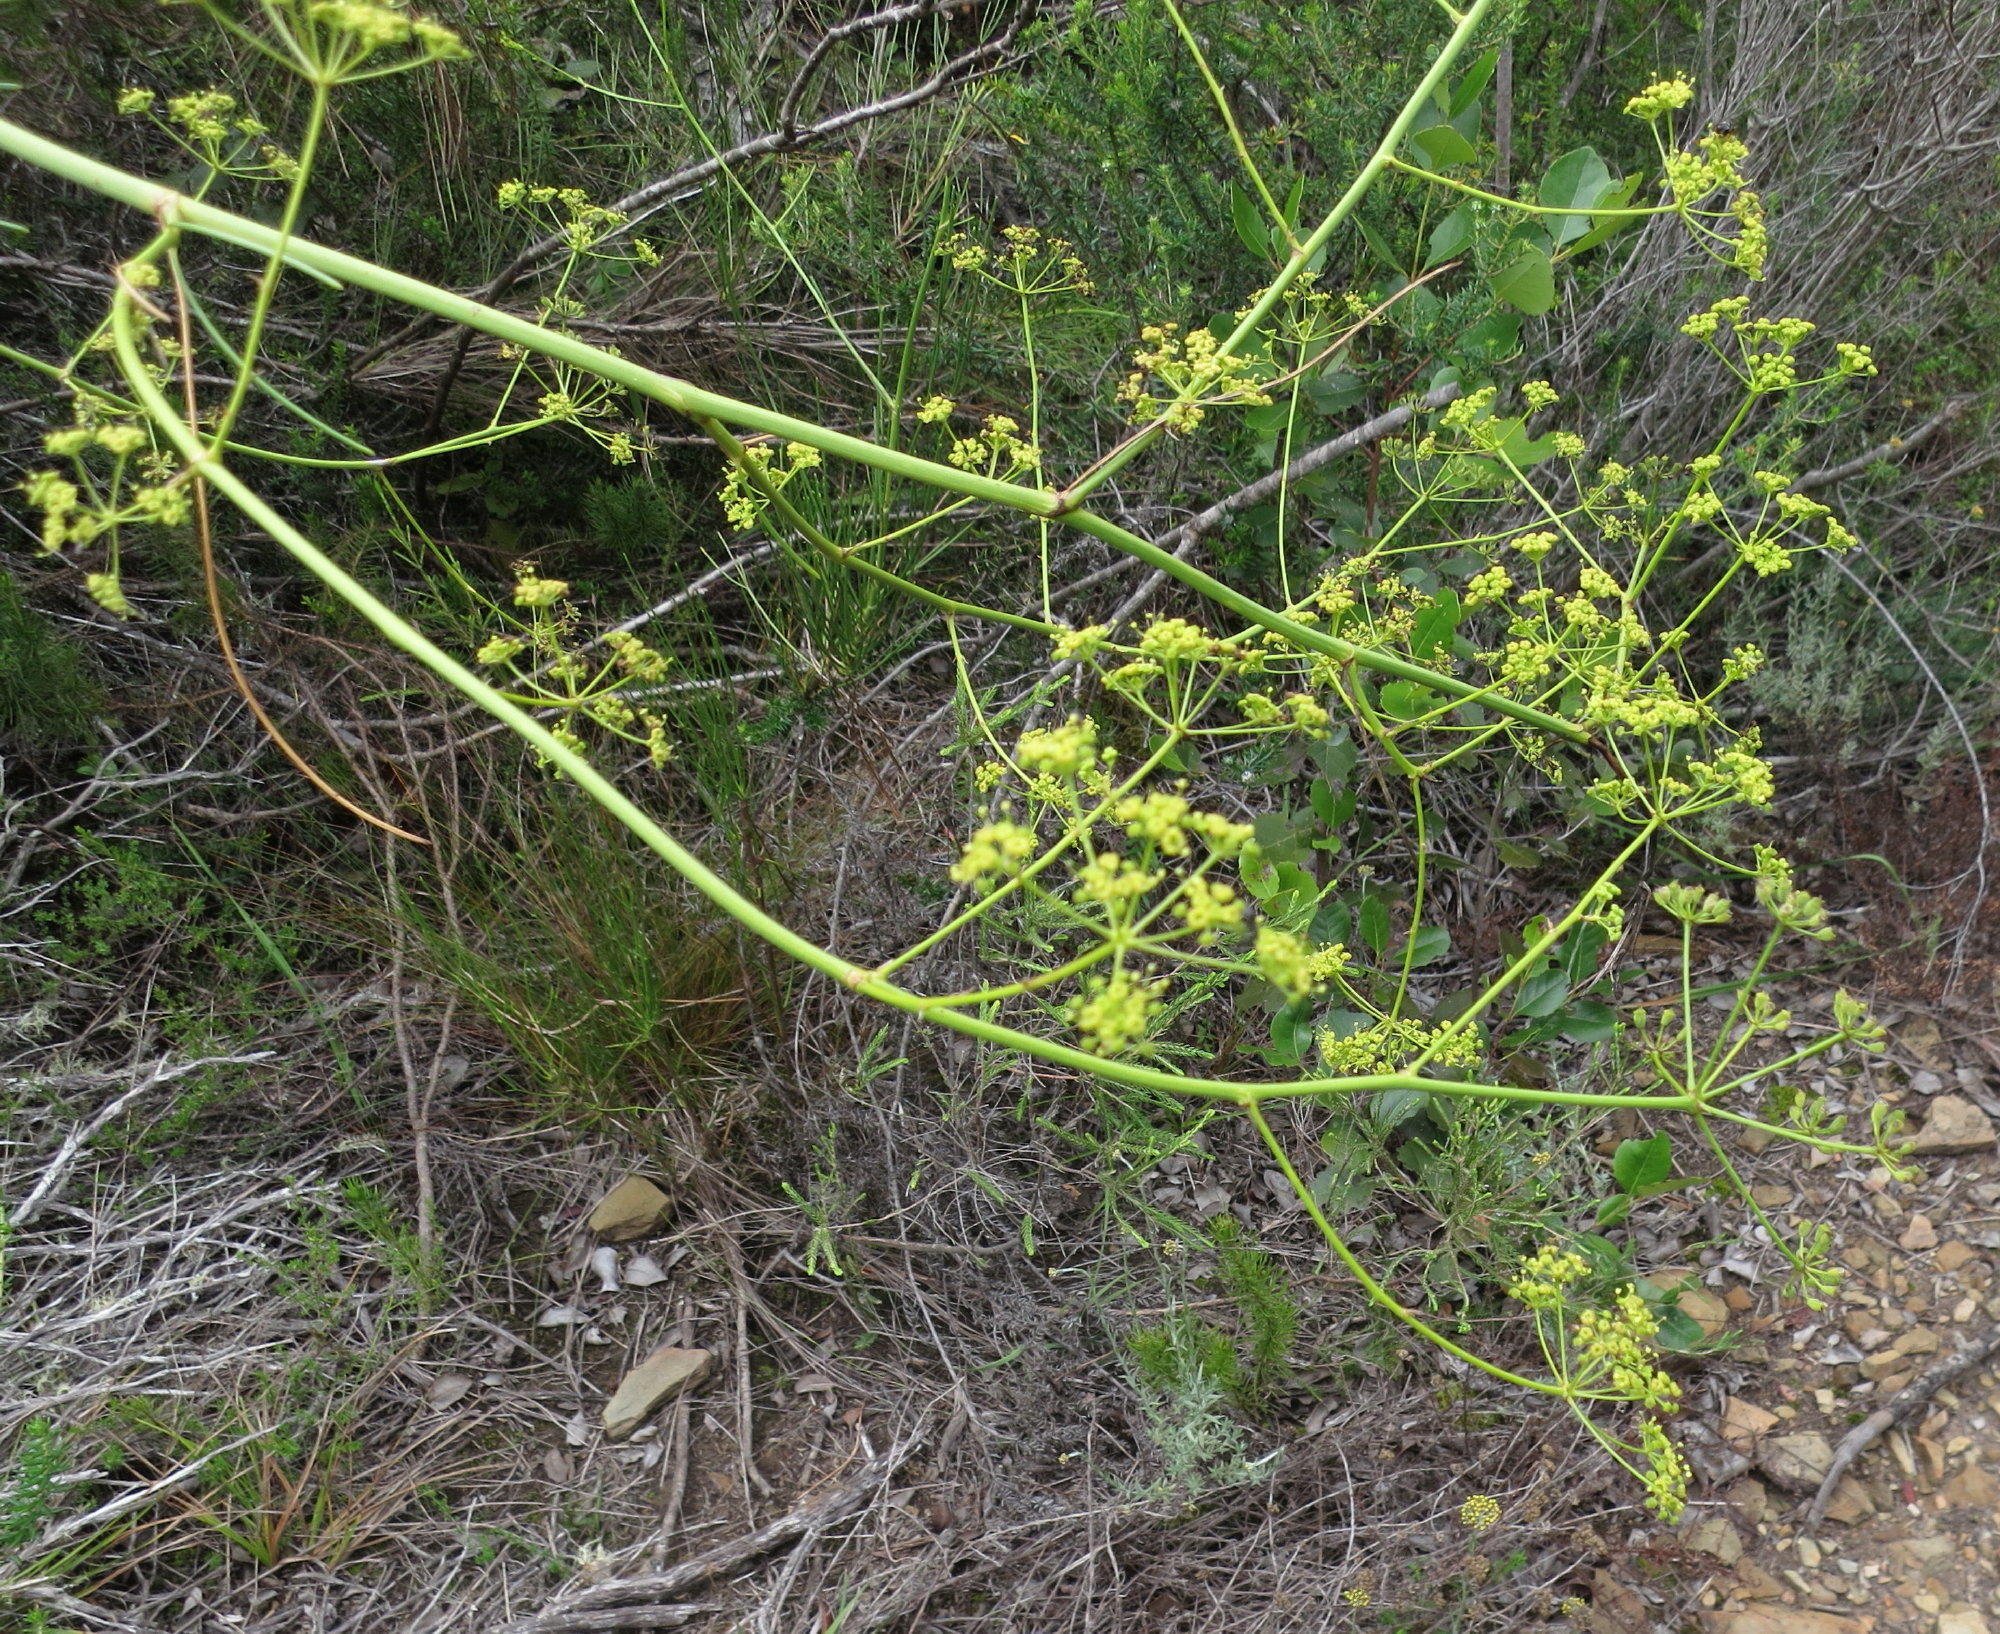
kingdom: Plantae
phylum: Tracheophyta
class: Magnoliopsida
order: Apiales
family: Apiaceae
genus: Anginon
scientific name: Anginon difforme
